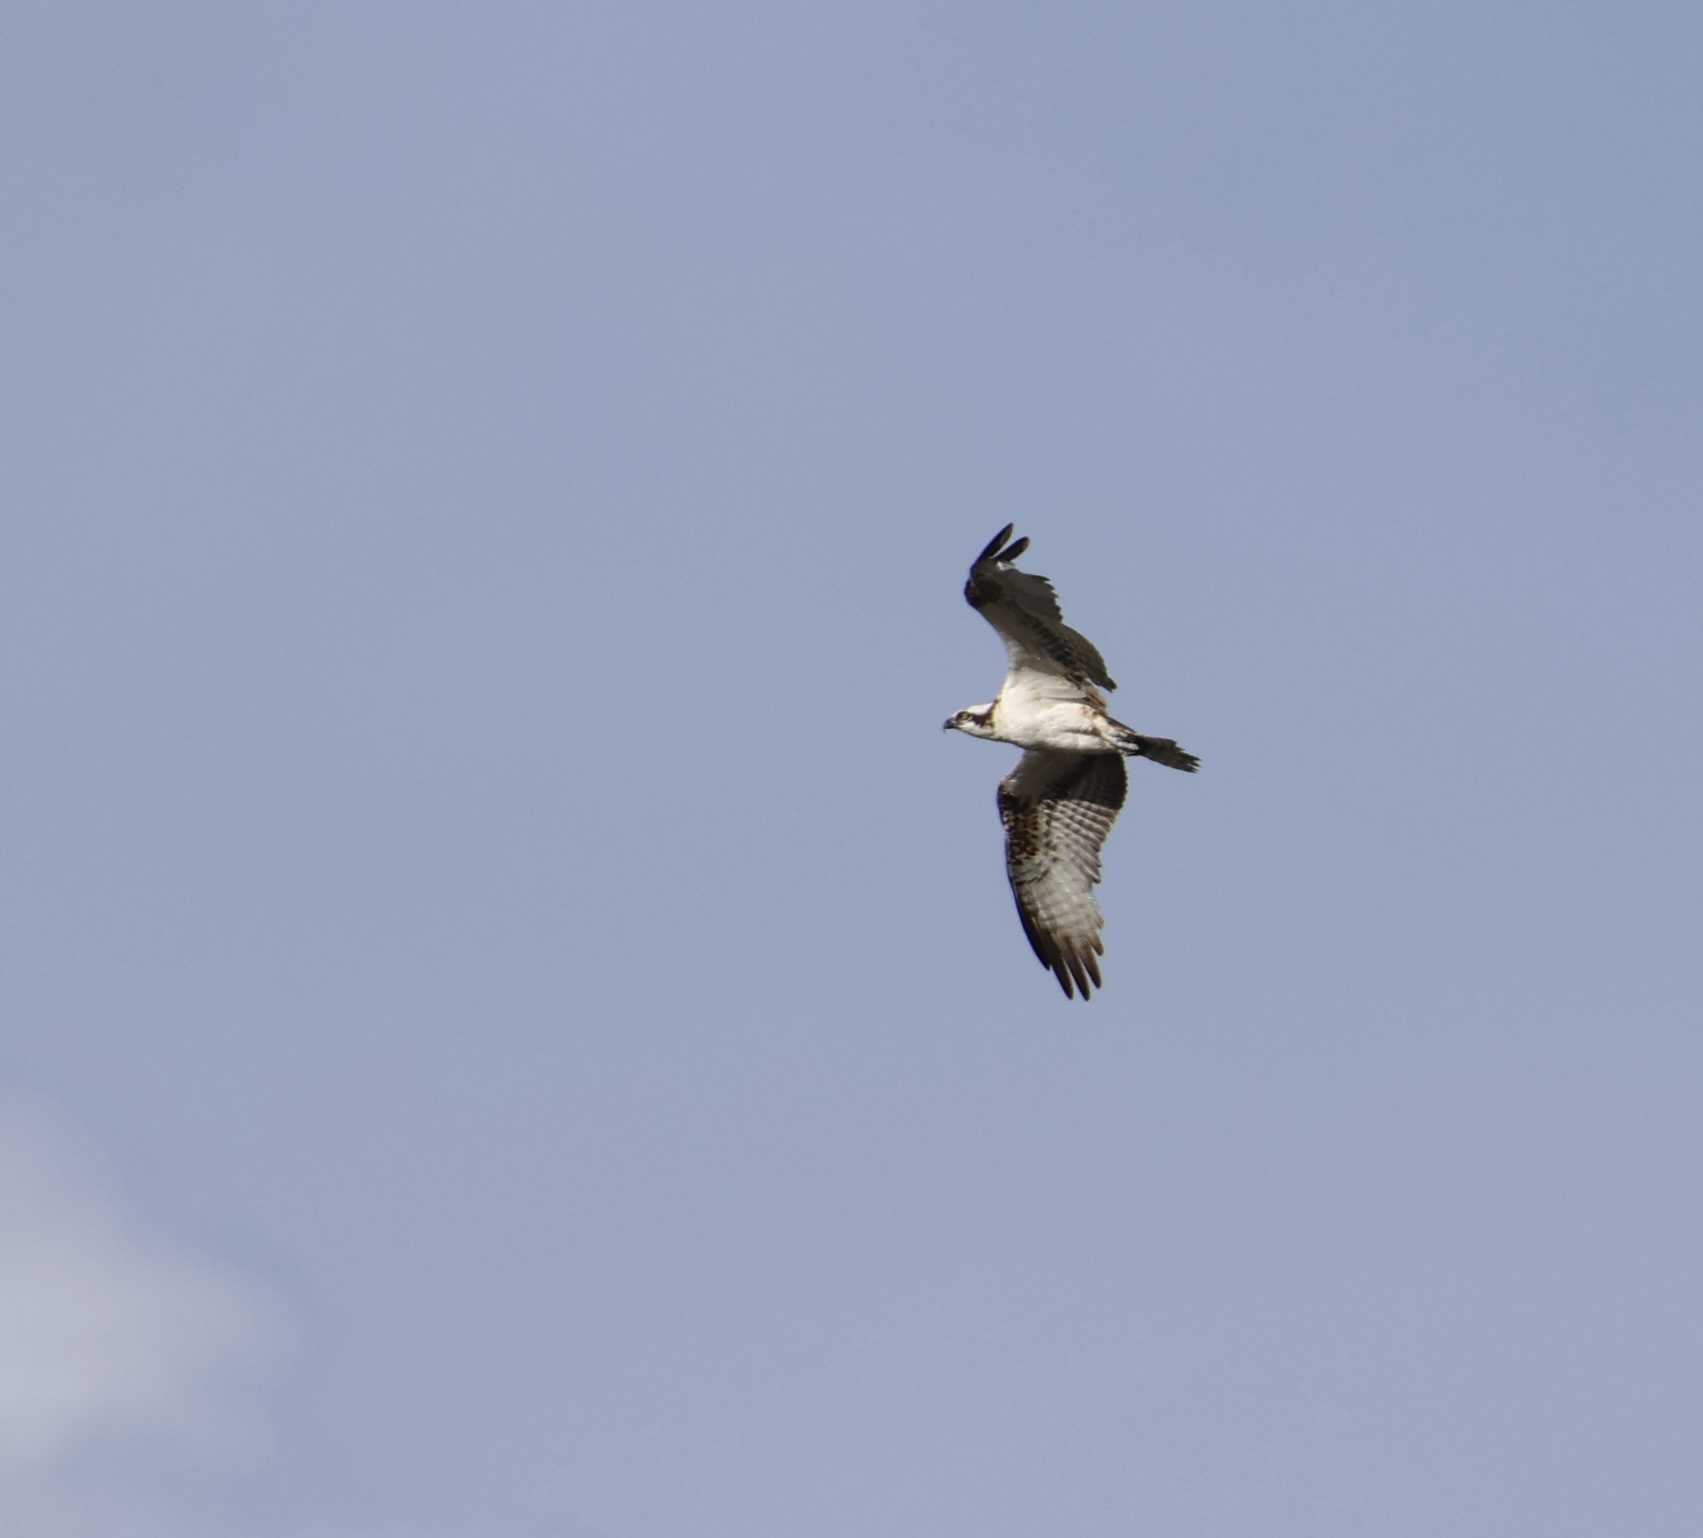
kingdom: Animalia
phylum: Chordata
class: Aves
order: Accipitriformes
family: Pandionidae
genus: Pandion
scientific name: Pandion haliaetus
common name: Osprey
